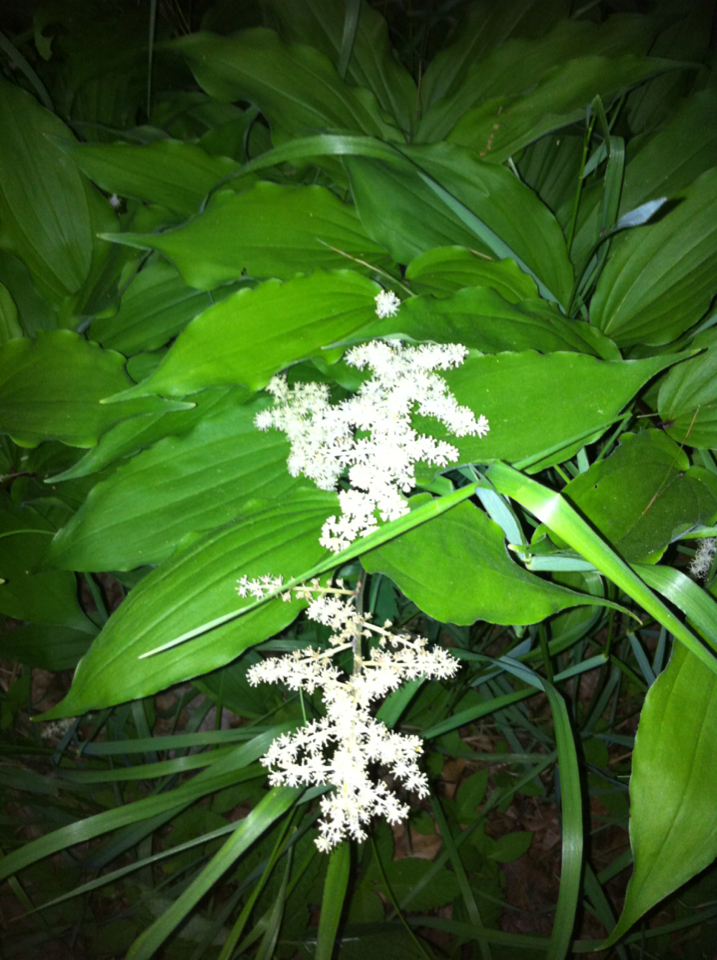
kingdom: Plantae
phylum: Tracheophyta
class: Liliopsida
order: Asparagales
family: Asparagaceae
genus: Maianthemum
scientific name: Maianthemum racemosum
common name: False spikenard
